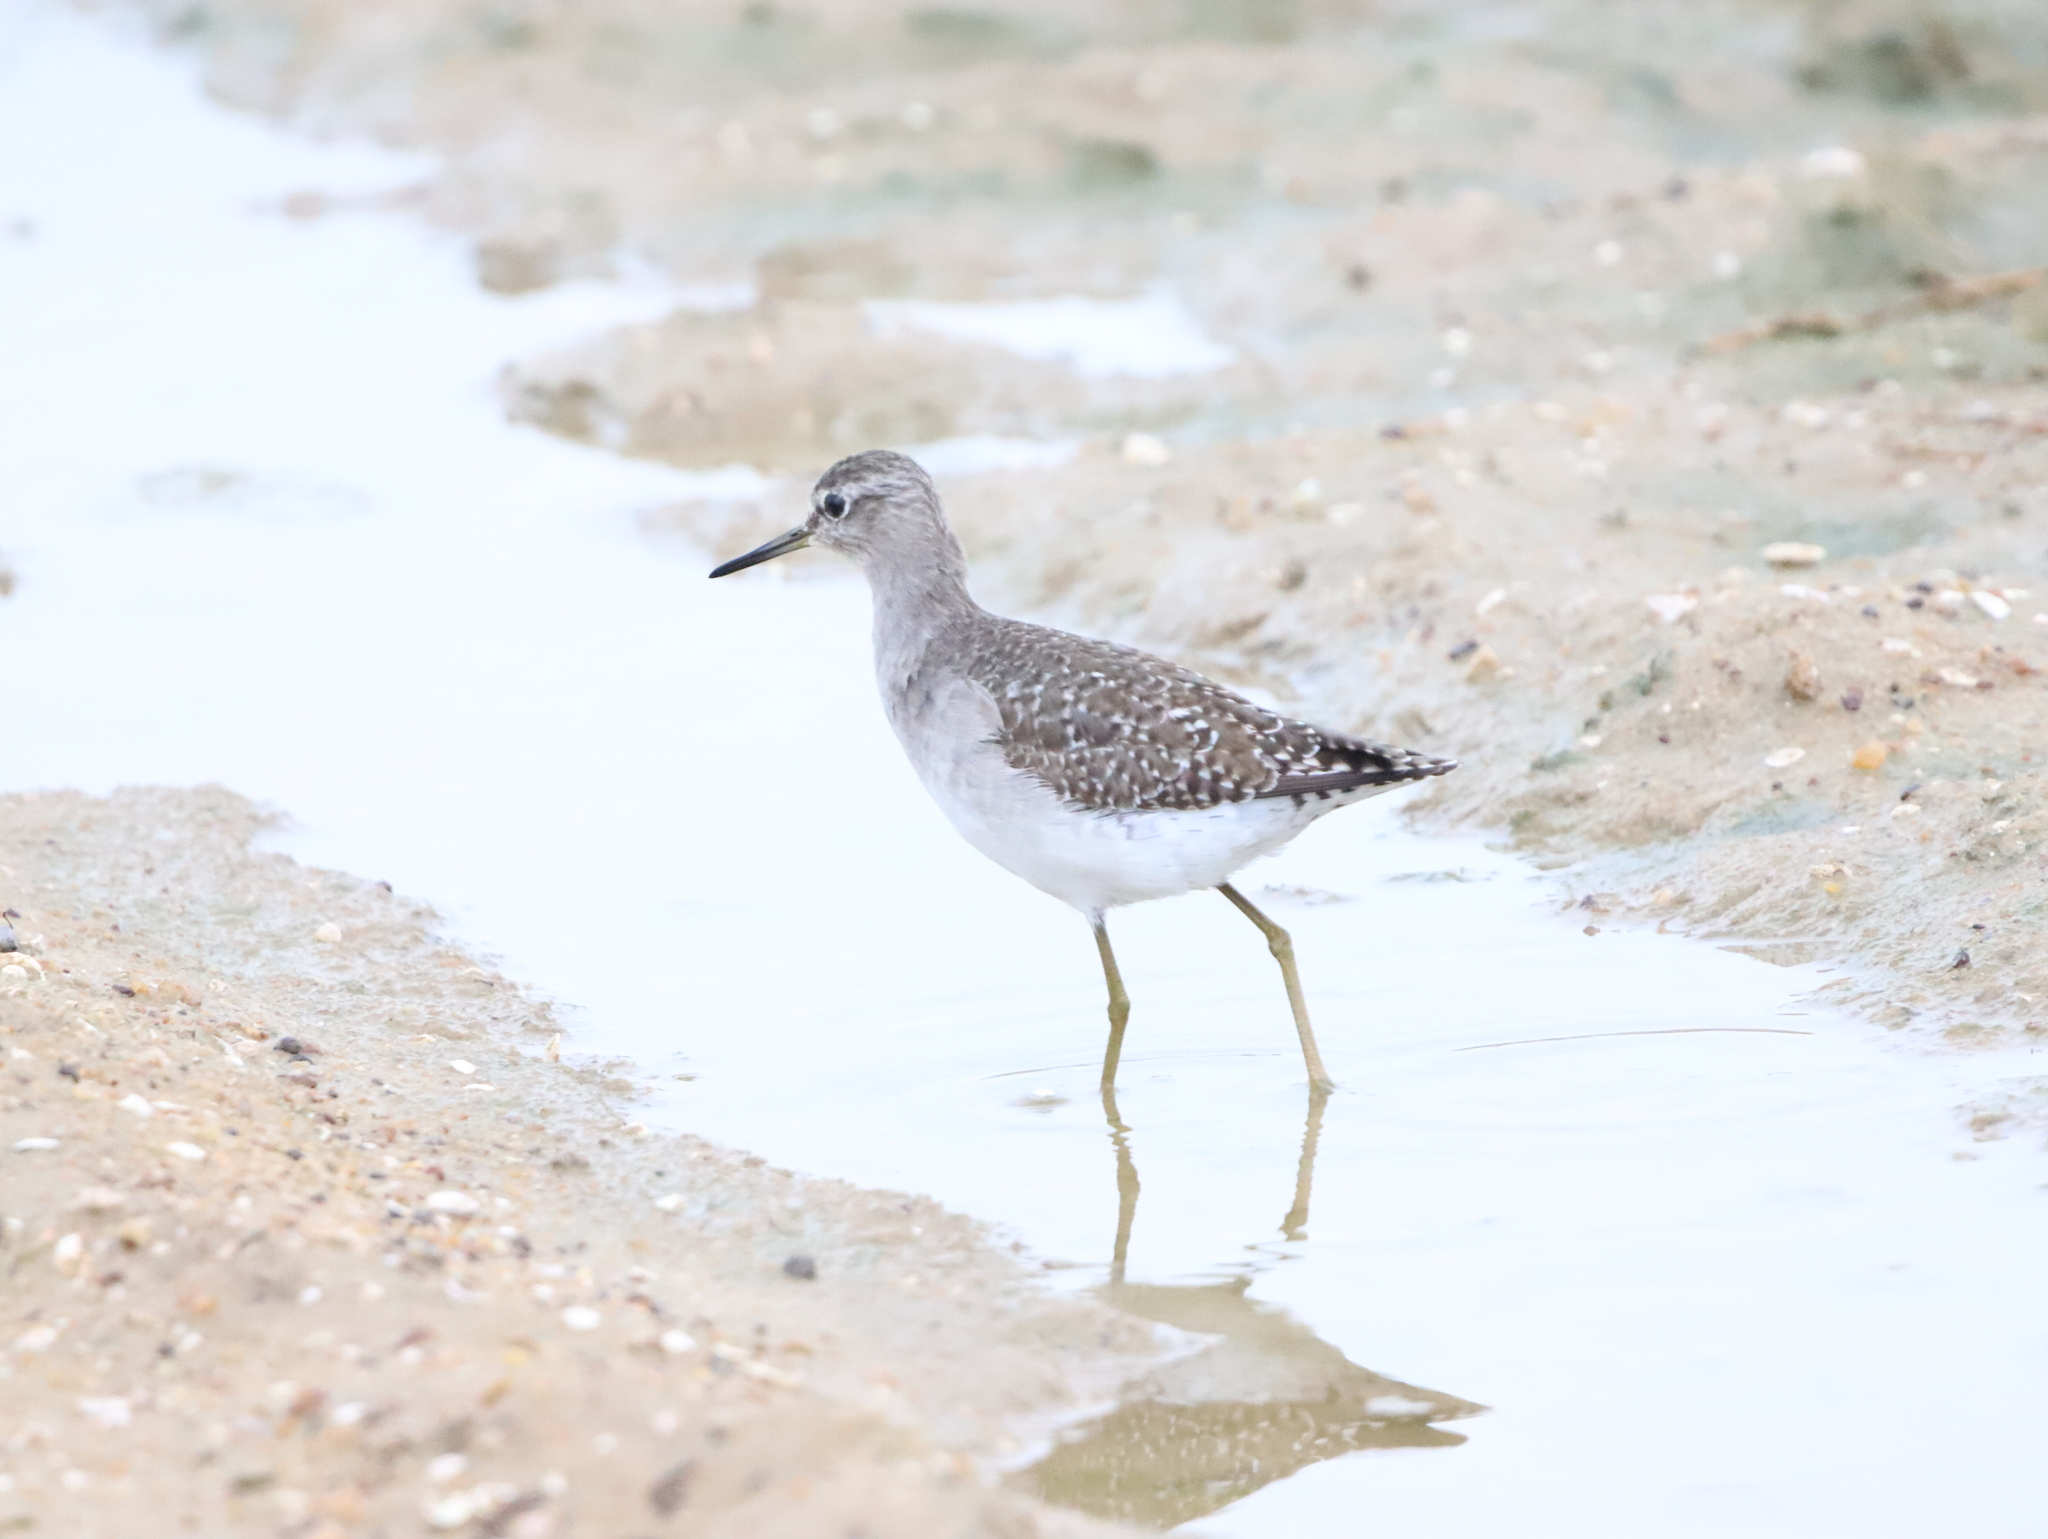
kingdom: Animalia
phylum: Chordata
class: Aves
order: Charadriiformes
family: Scolopacidae
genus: Tringa
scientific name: Tringa glareola
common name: Wood sandpiper
